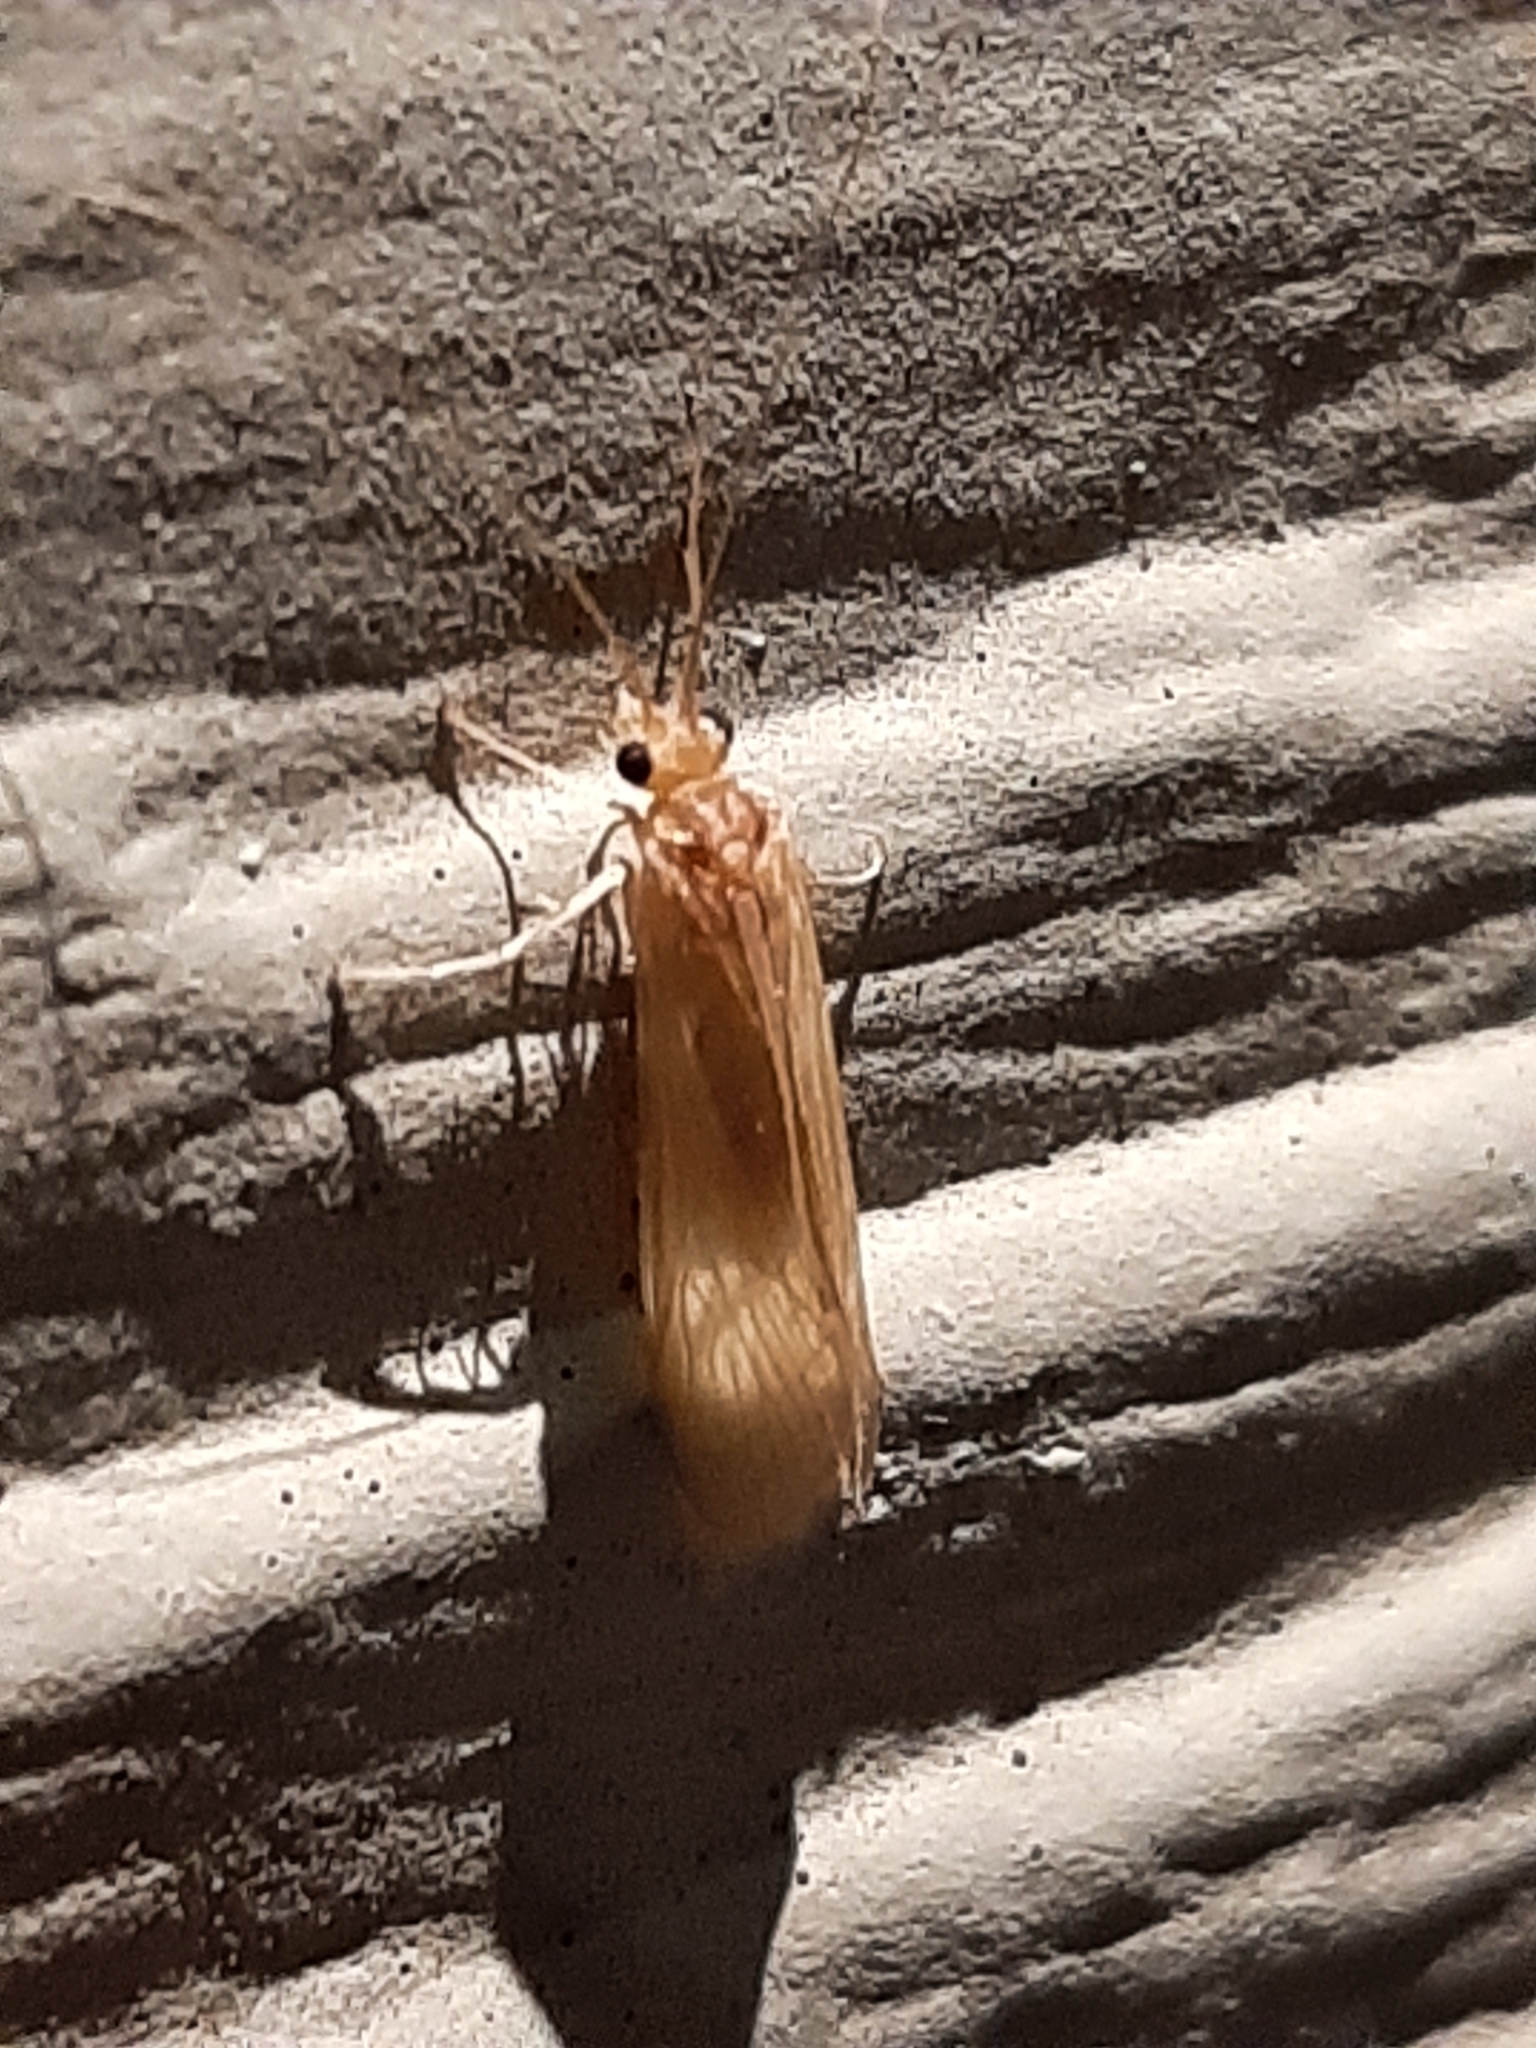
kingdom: Animalia
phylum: Arthropoda
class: Insecta
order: Trichoptera
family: Hydropsychidae
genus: Potamyia
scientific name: Potamyia flava
